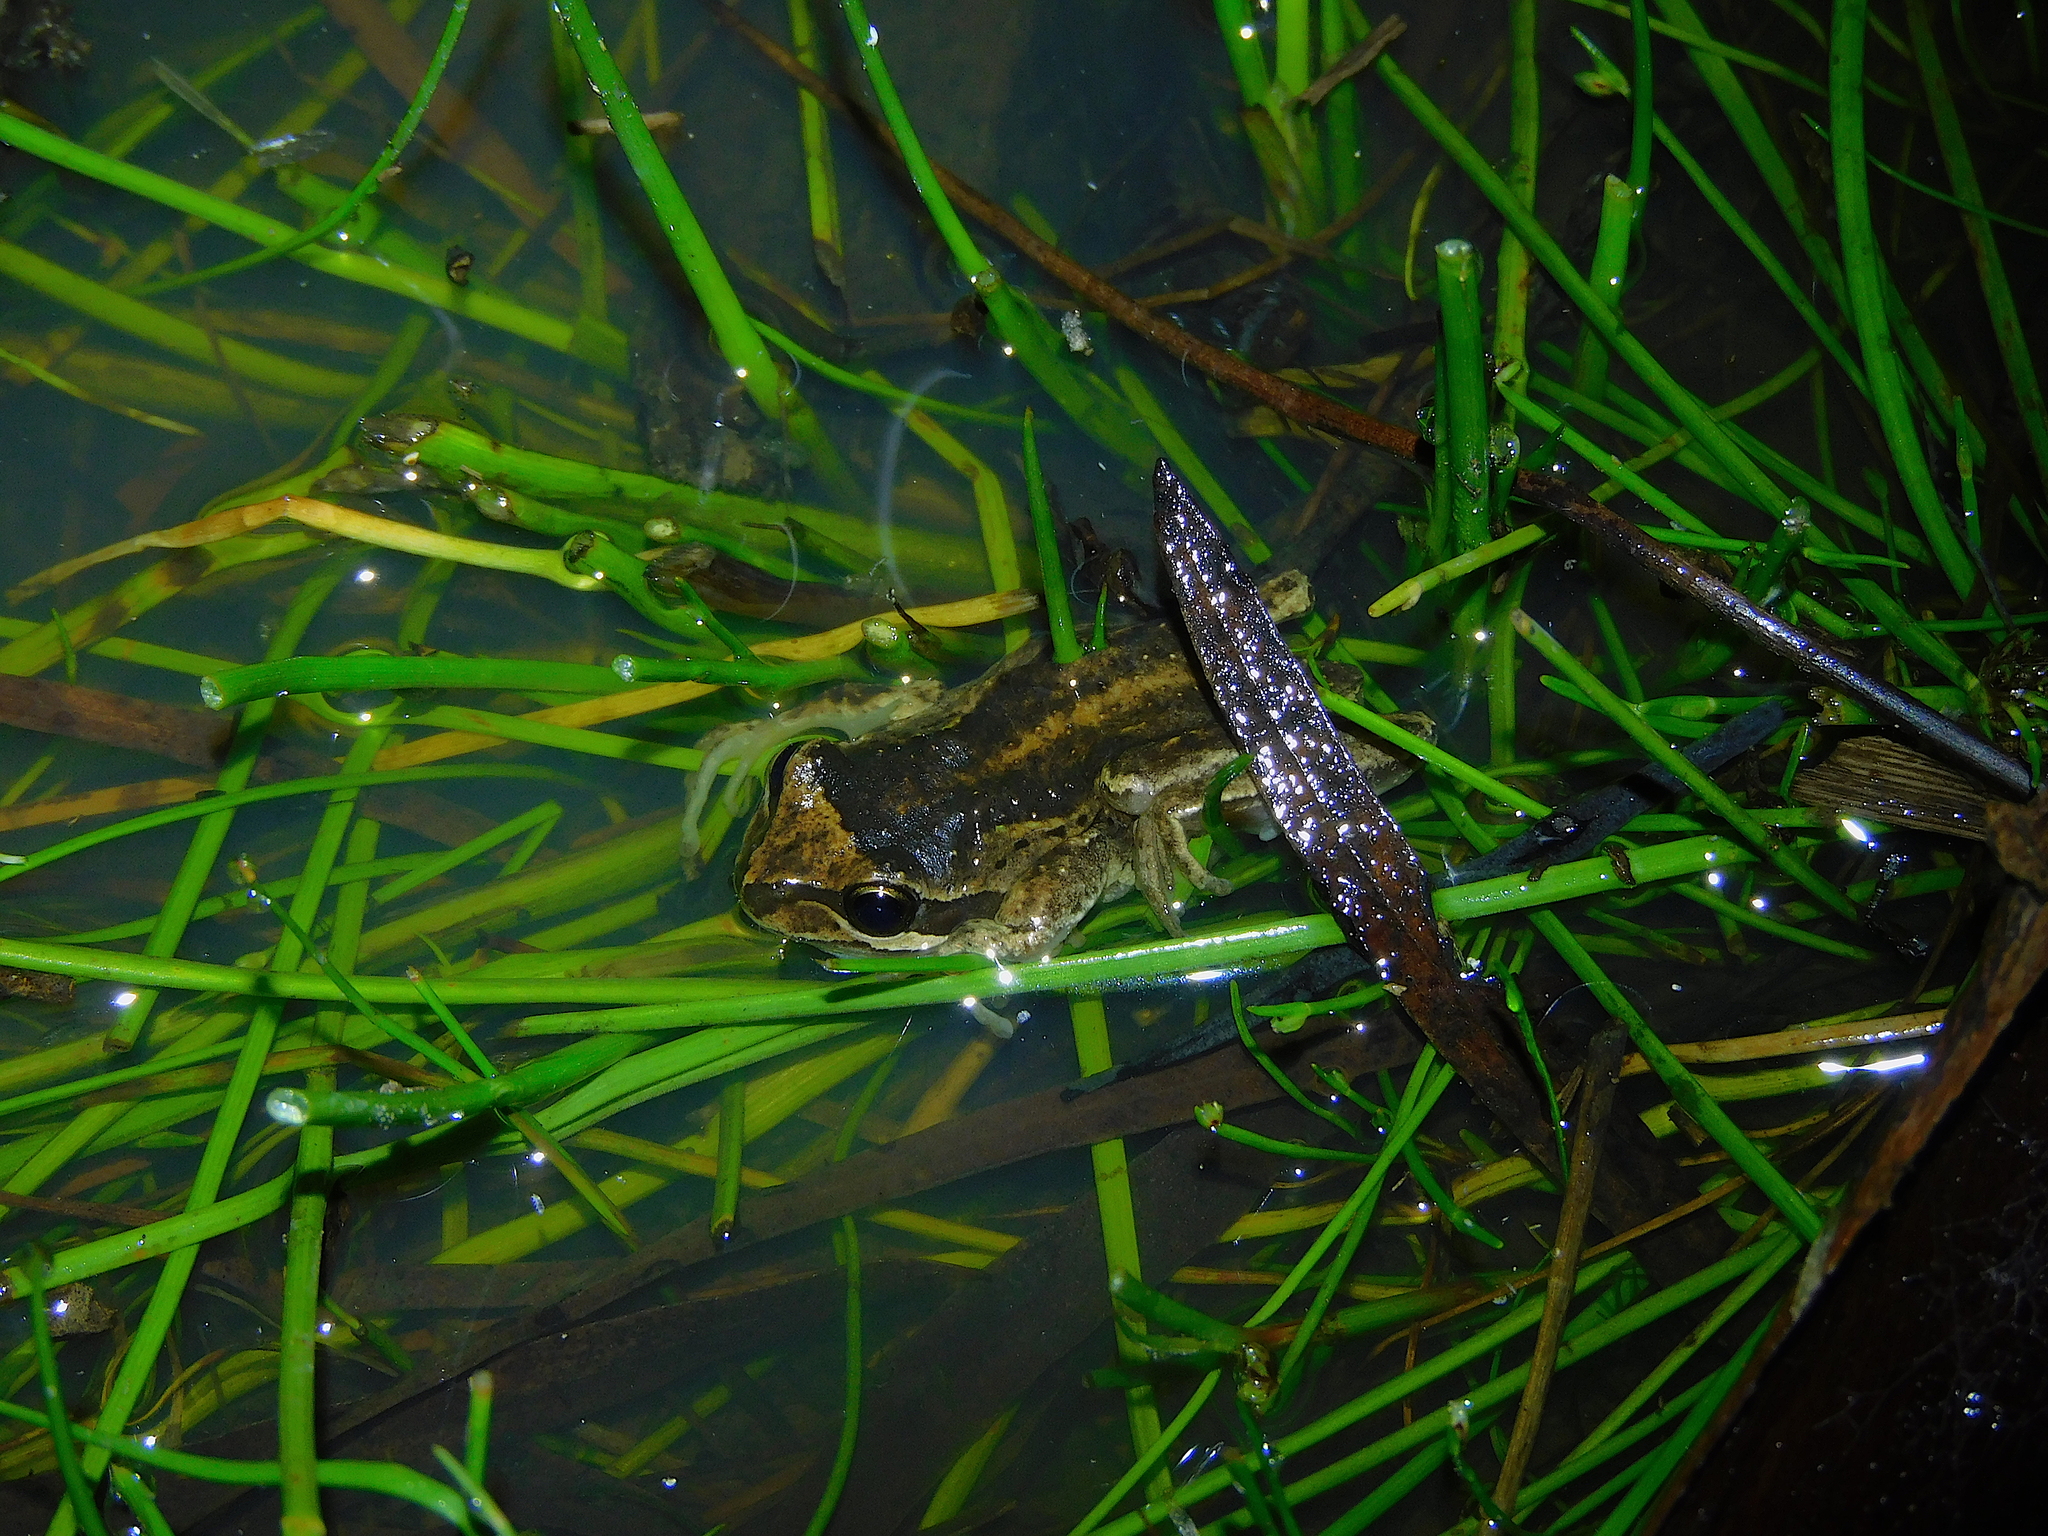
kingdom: Animalia
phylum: Chordata
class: Amphibia
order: Anura
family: Pelodryadidae
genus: Litoria
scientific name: Litoria ewingii
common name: Southern brown tree frog
